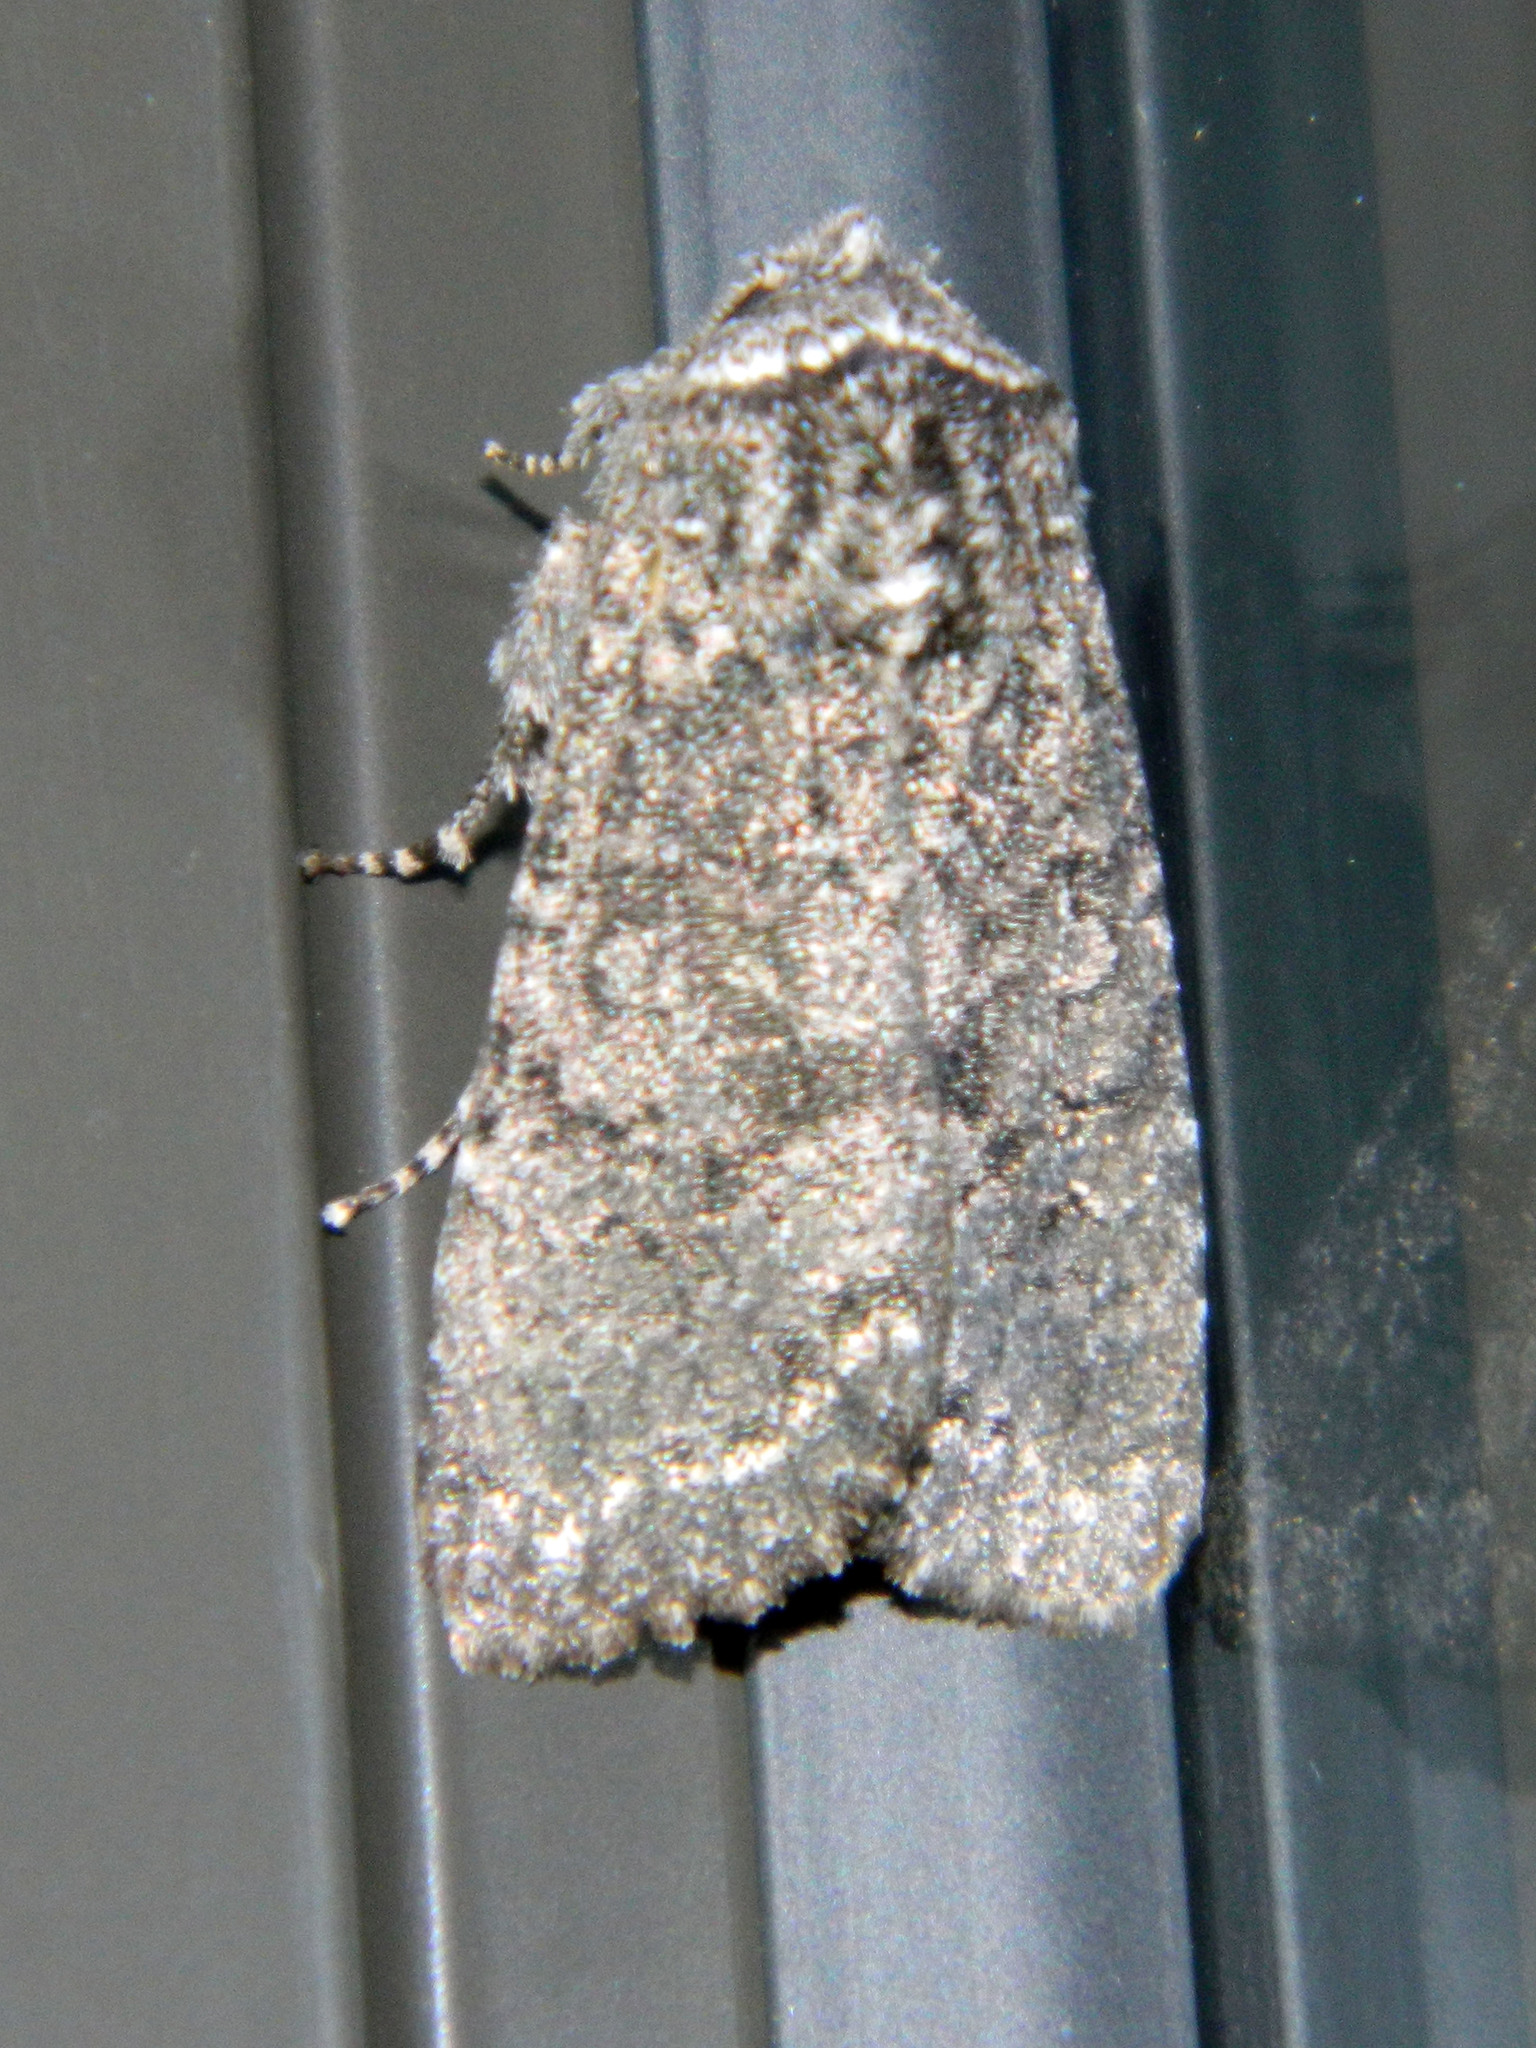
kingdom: Animalia
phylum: Arthropoda
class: Insecta
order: Lepidoptera
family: Noctuidae
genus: Egira
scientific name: Egira dolosa
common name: Lined black aspen cat.
